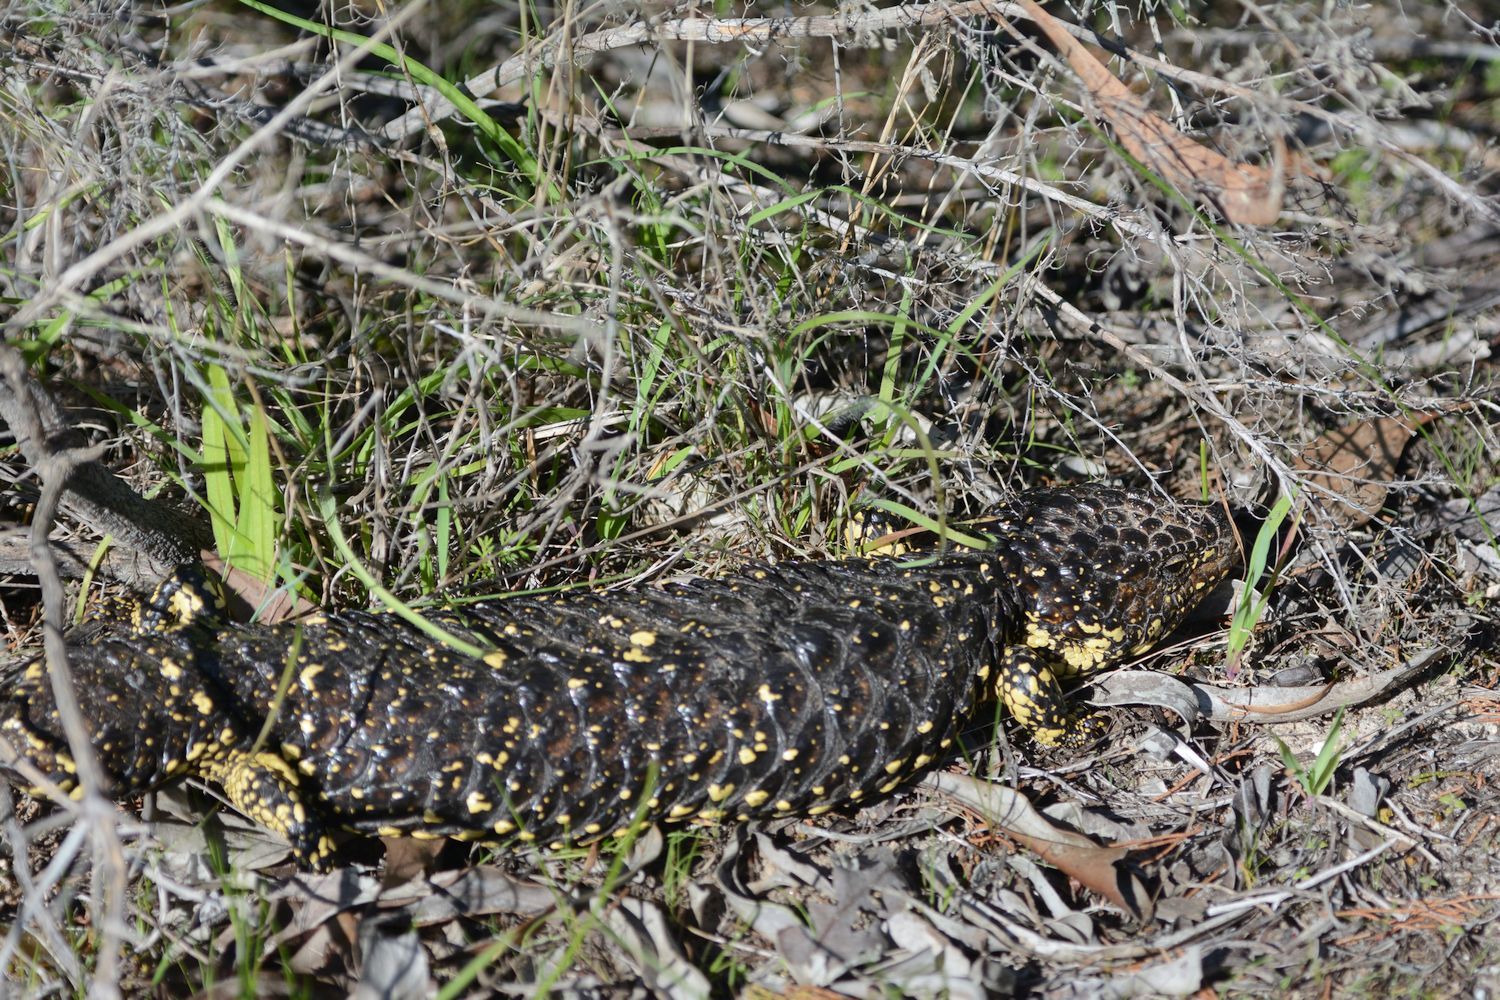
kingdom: Animalia
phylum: Chordata
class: Squamata
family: Scincidae
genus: Tiliqua
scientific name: Tiliqua rugosa
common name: Pinecone lizard
